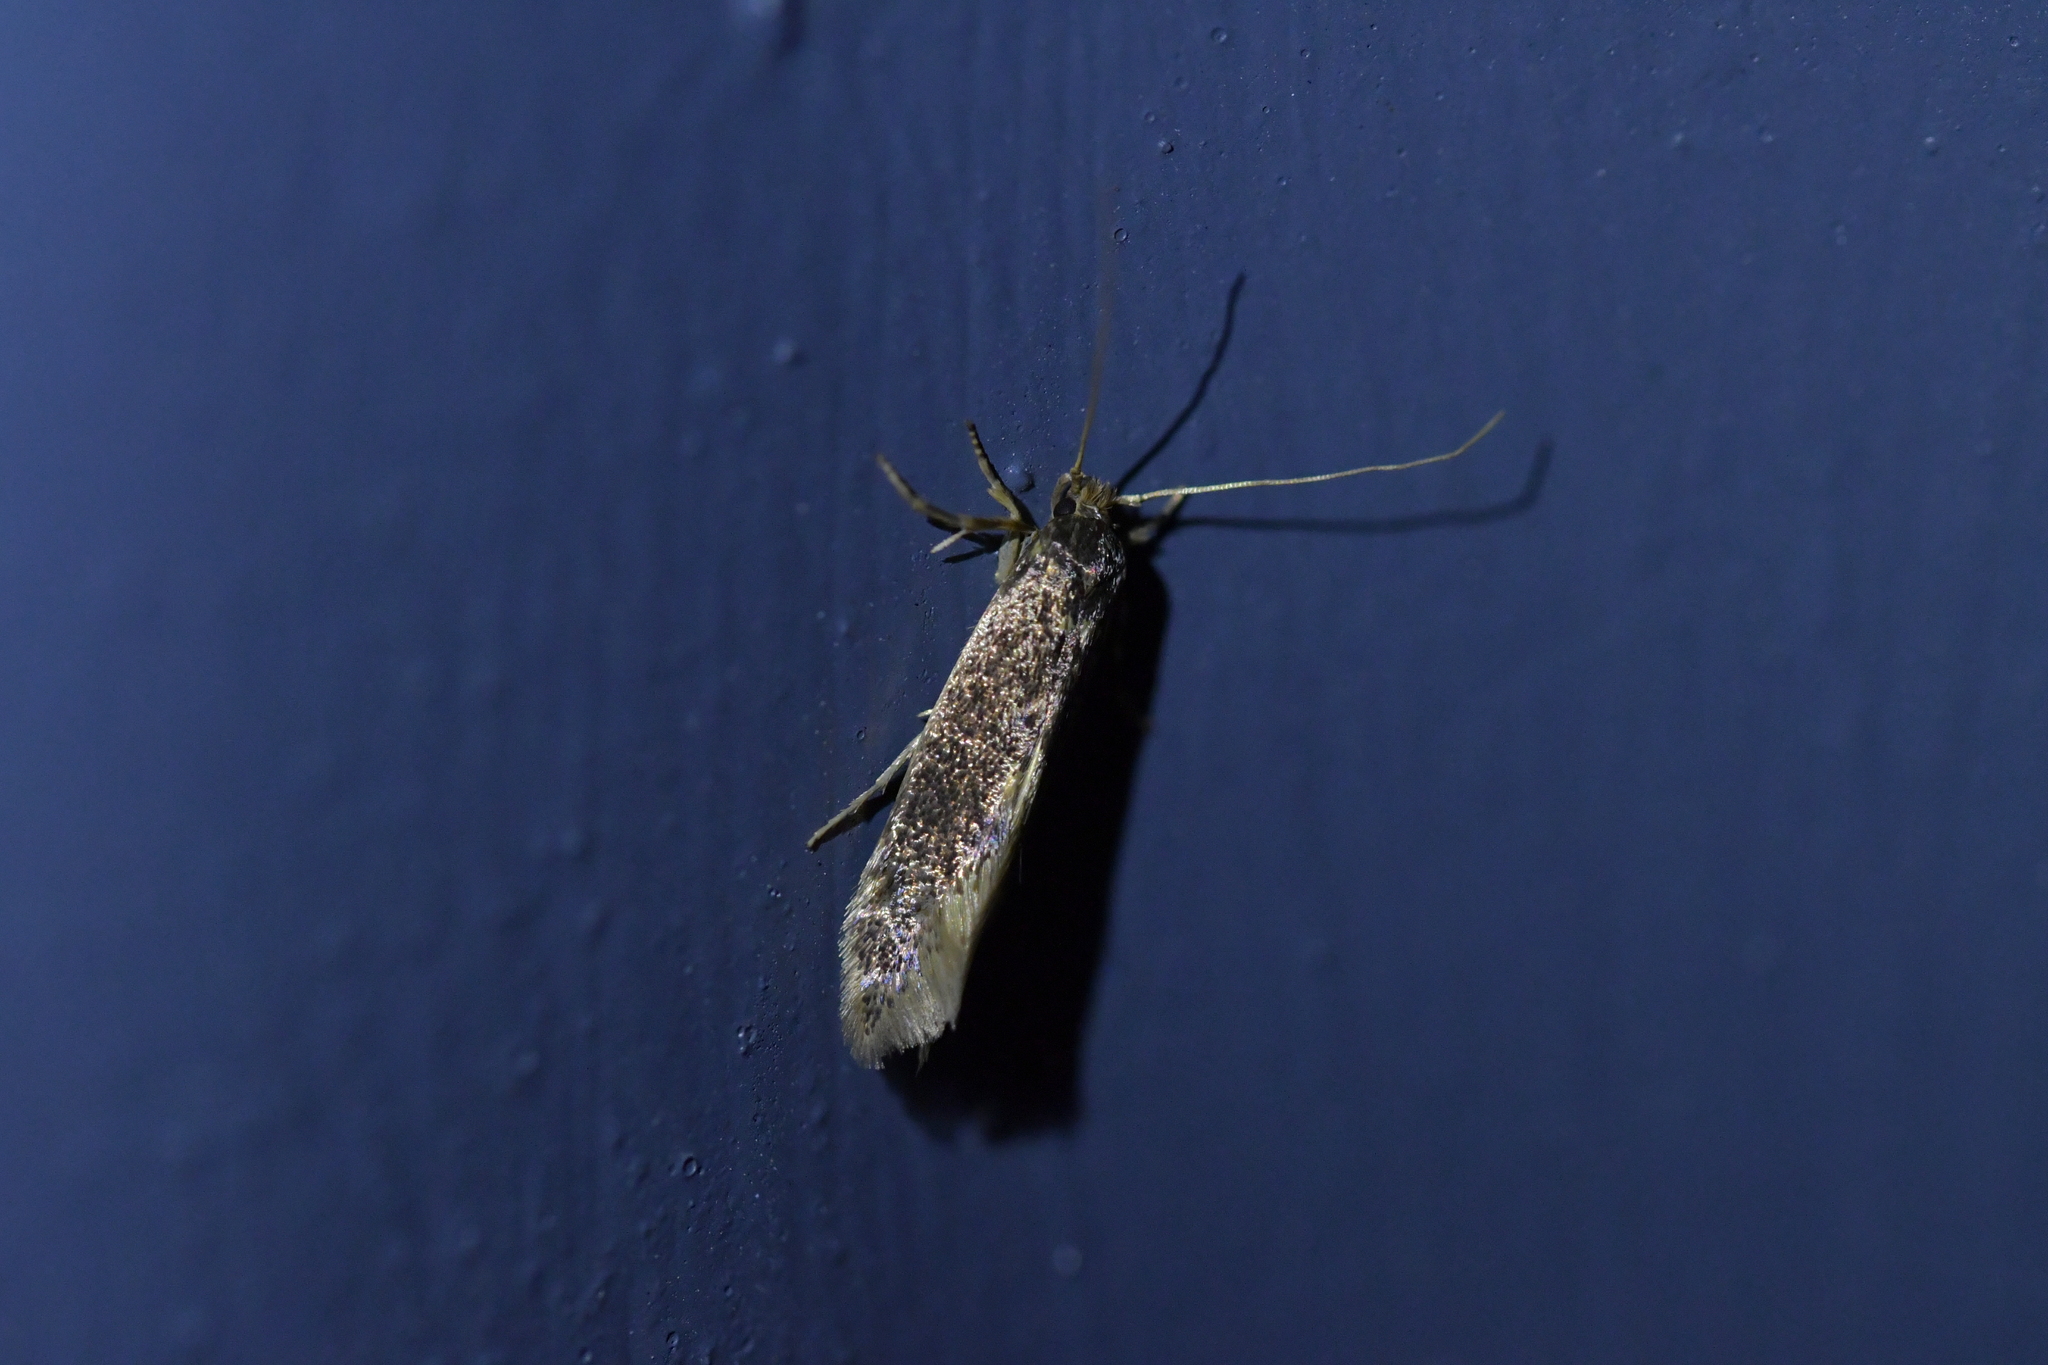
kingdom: Animalia
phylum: Arthropoda
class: Insecta
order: Lepidoptera
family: Tineidae
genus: Opogona
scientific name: Opogona omoscopa
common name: Moth
